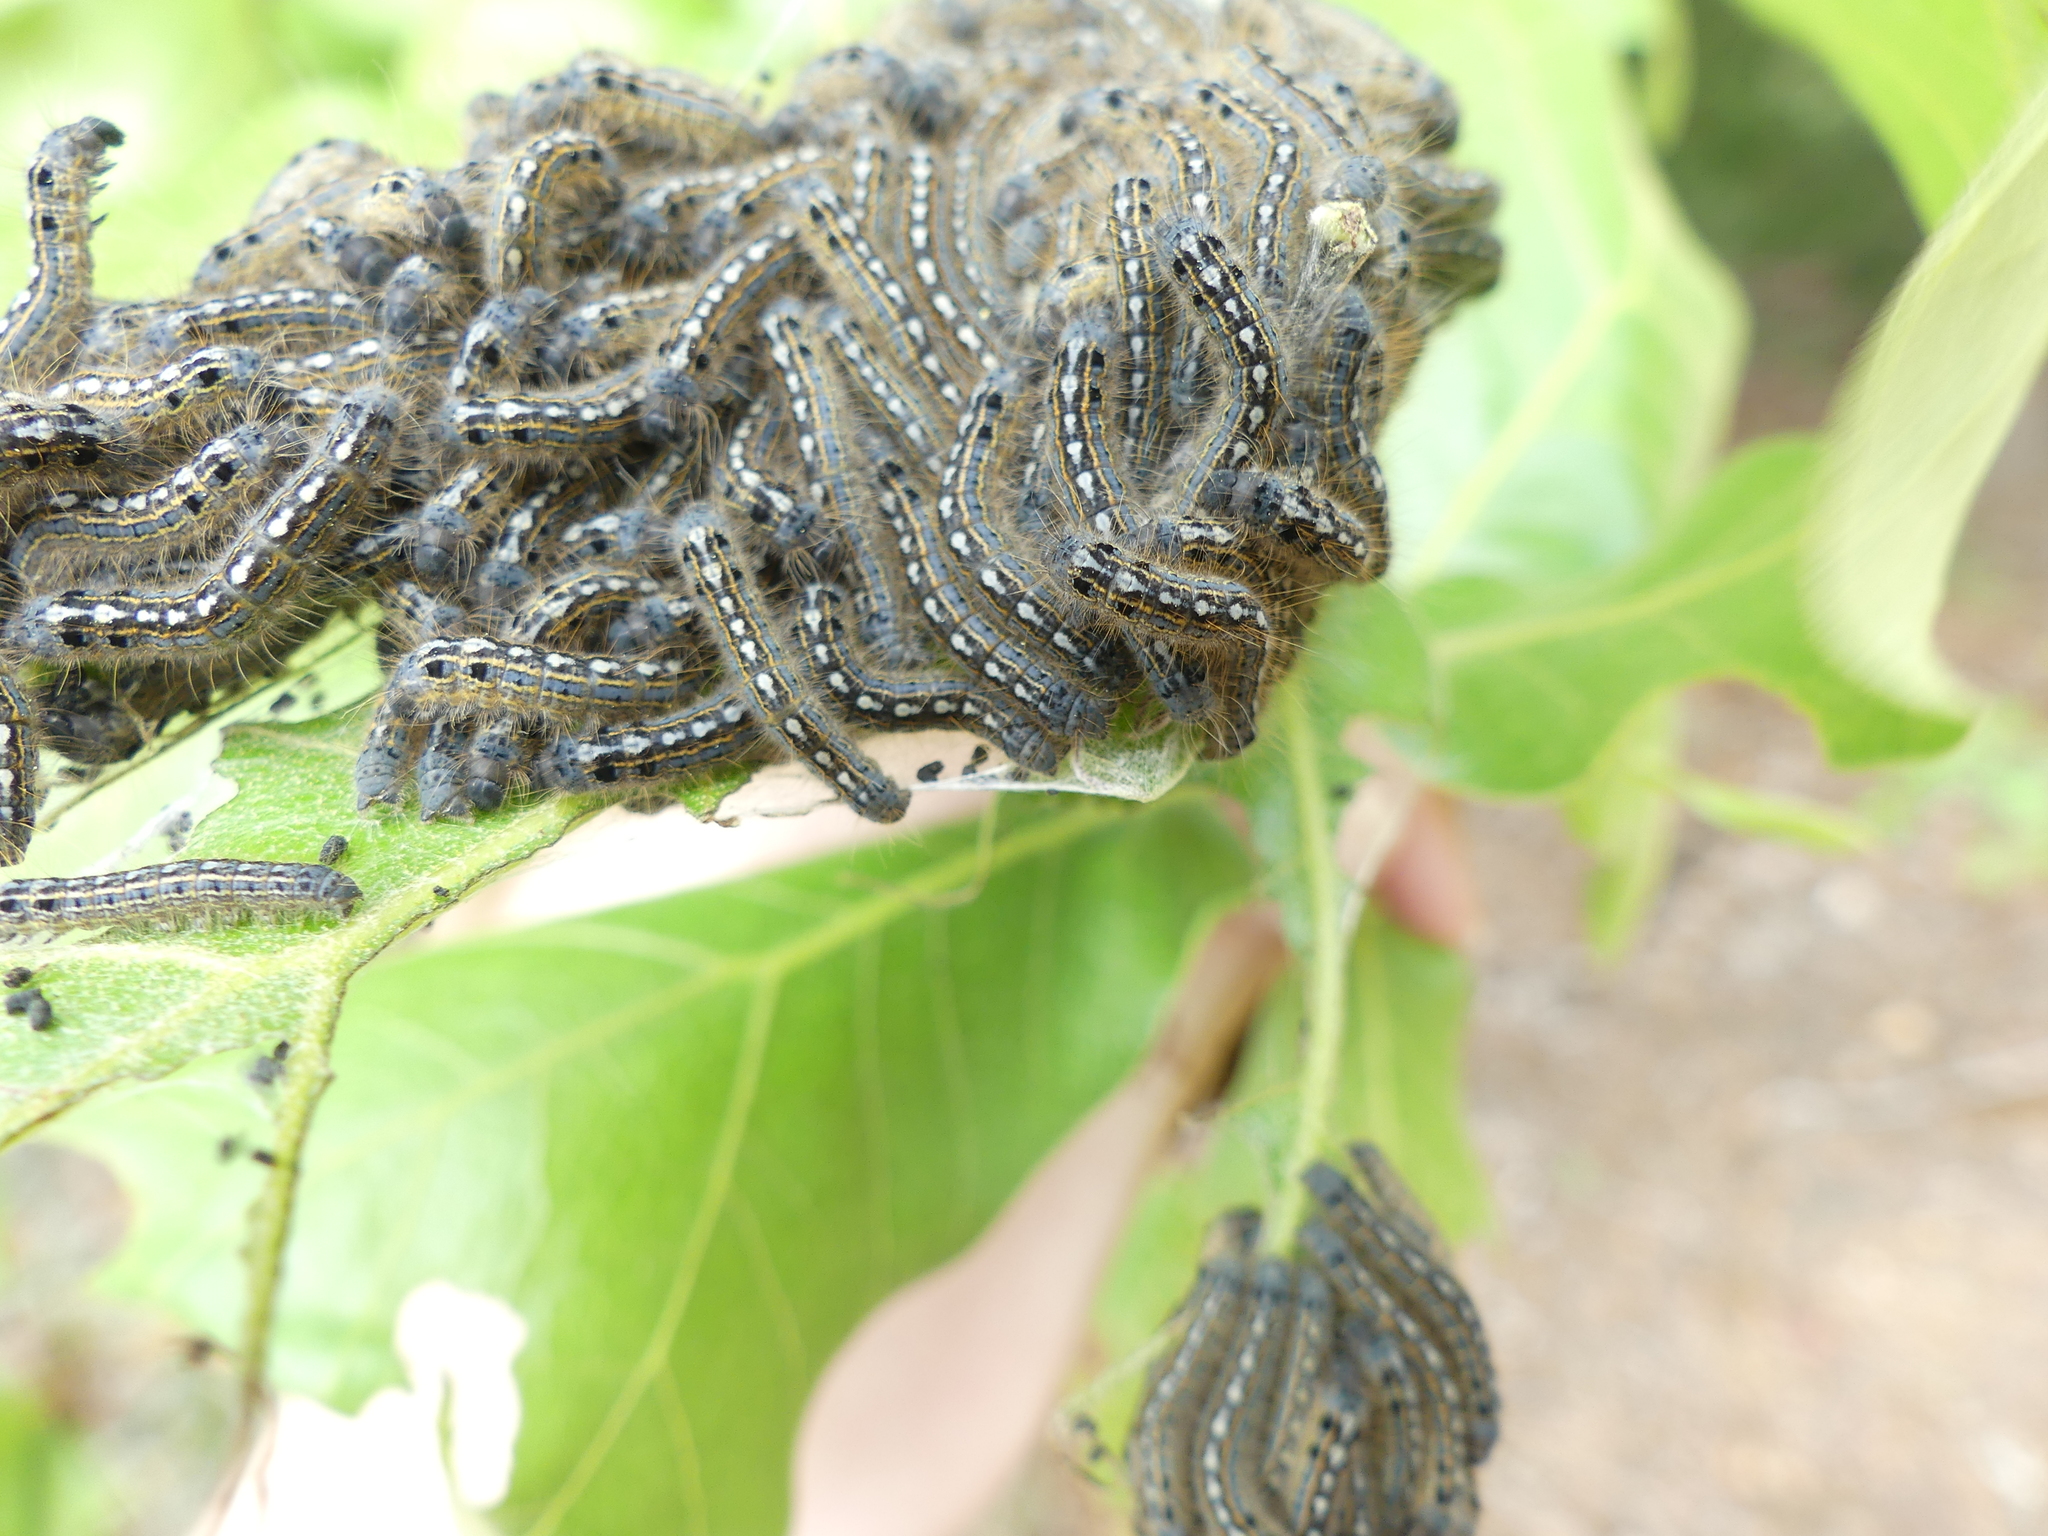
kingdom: Animalia
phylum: Arthropoda
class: Insecta
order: Lepidoptera
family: Lasiocampidae
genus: Malacosoma
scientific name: Malacosoma disstria
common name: Forest tent caterpillar
